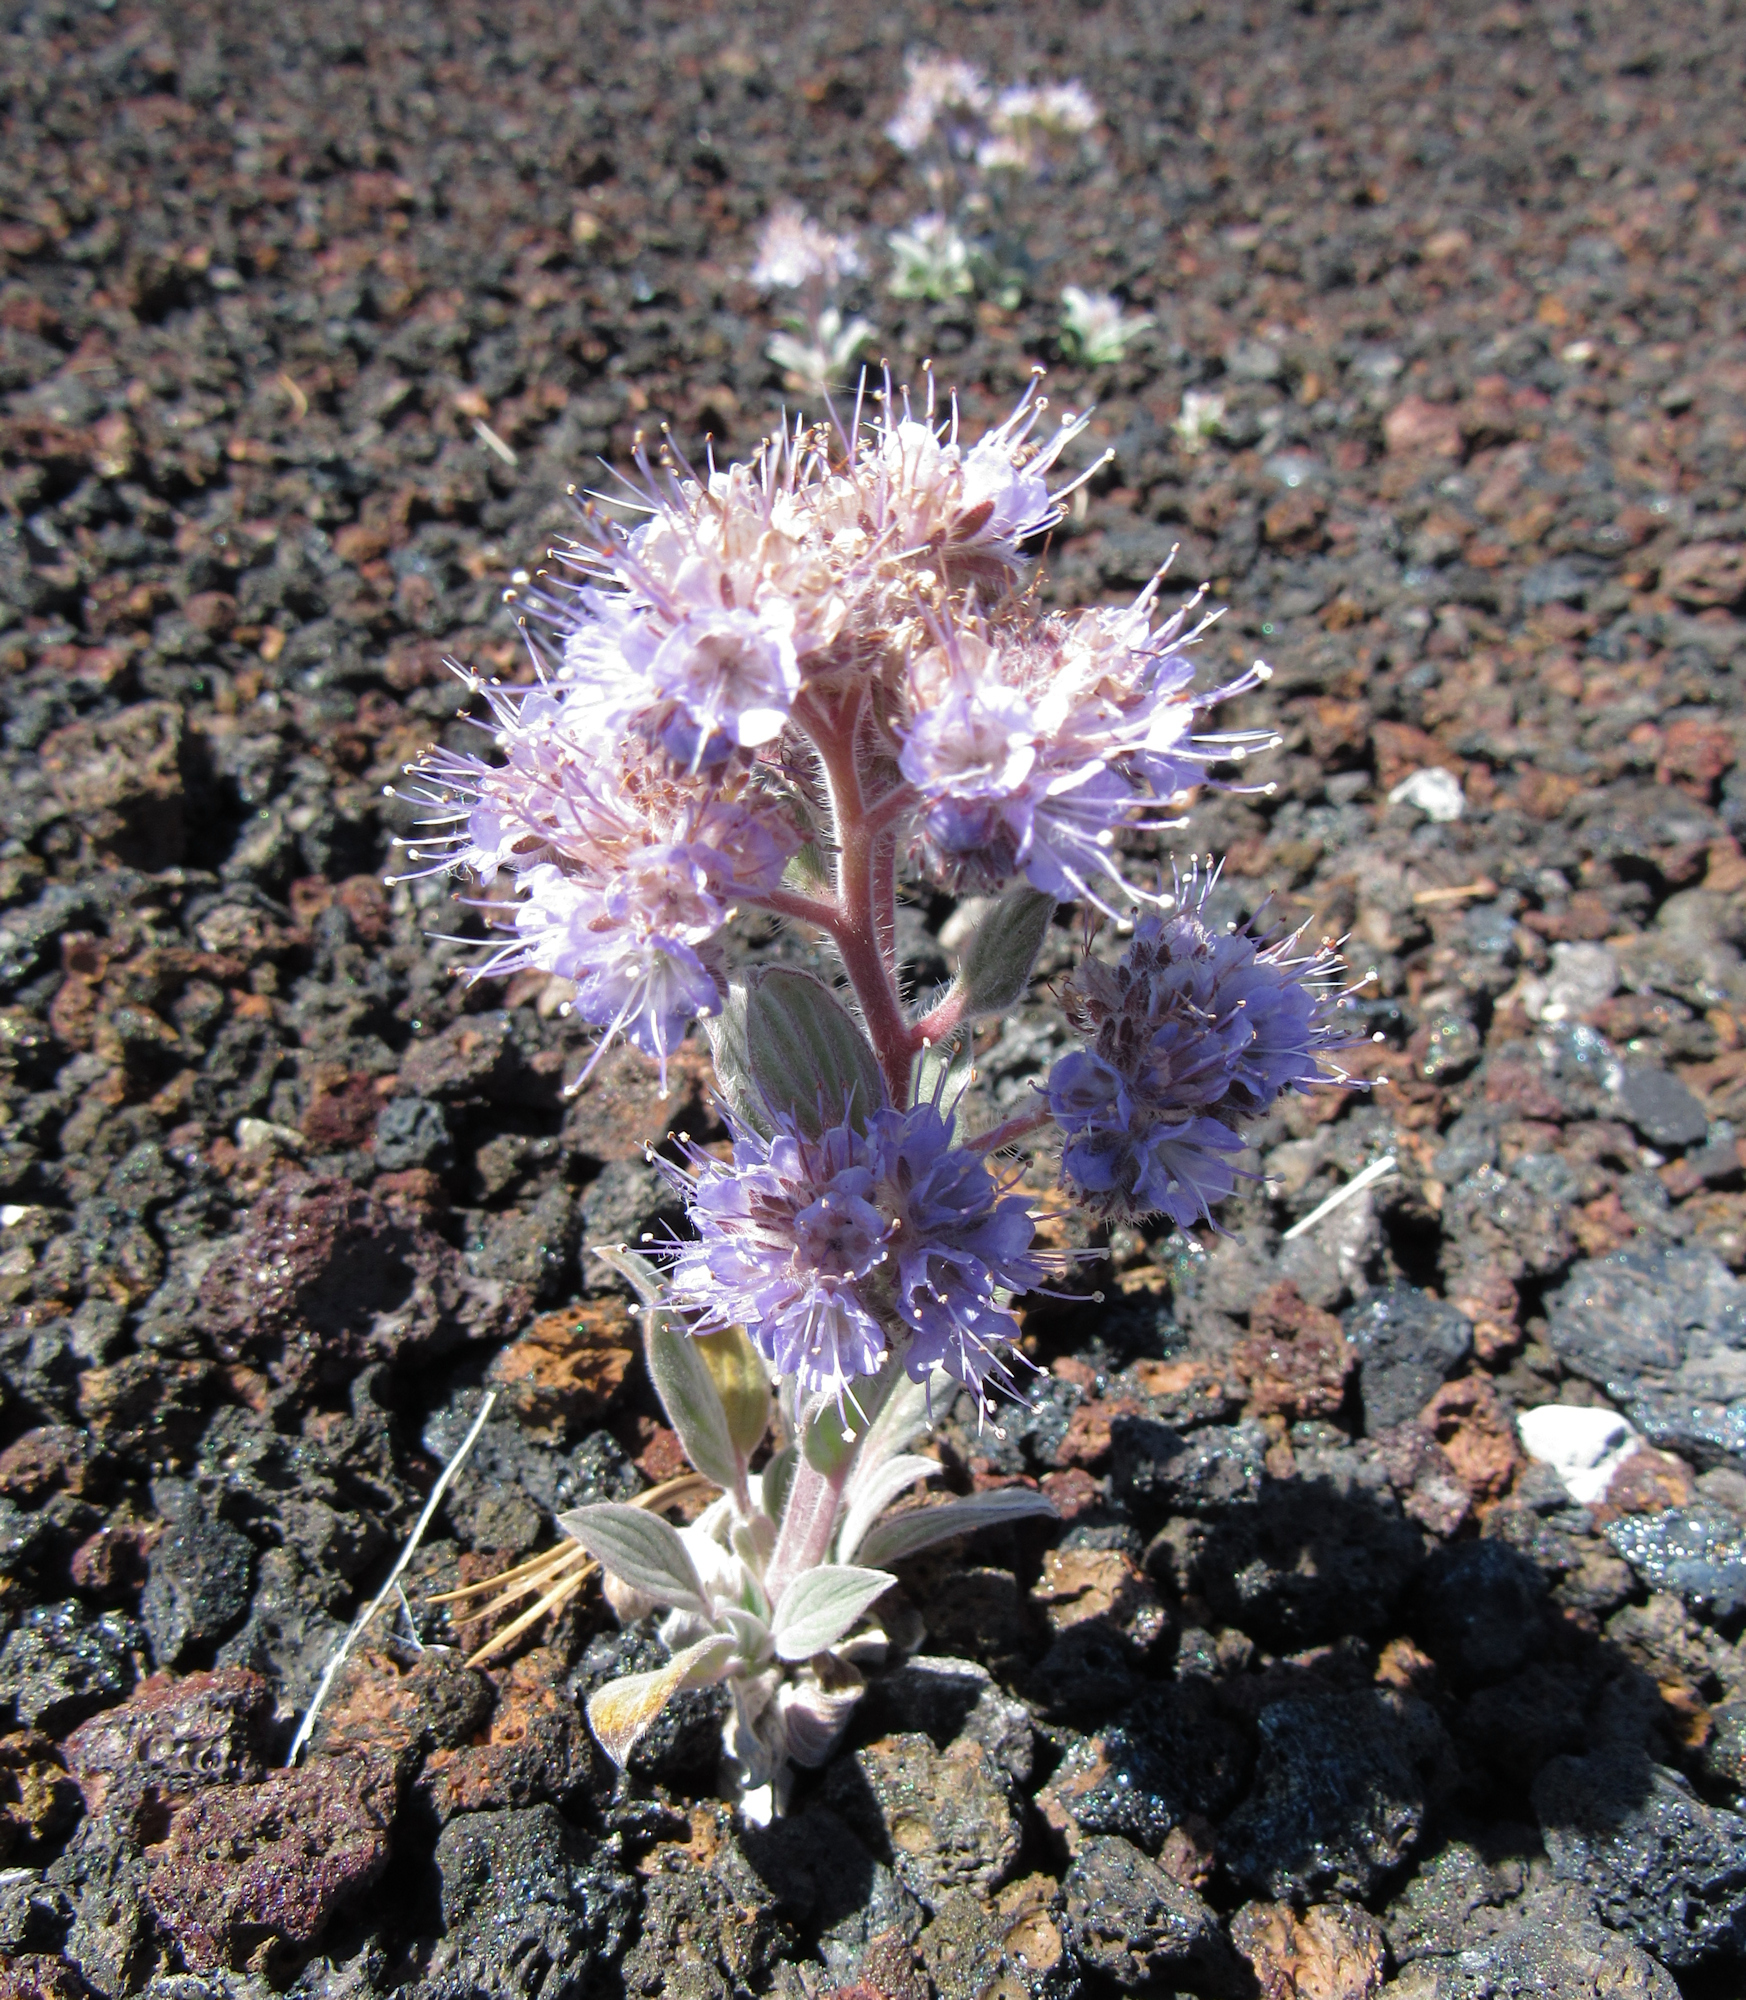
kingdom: Plantae
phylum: Tracheophyta
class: Magnoliopsida
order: Boraginales
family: Hydrophyllaceae
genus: Phacelia
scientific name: Phacelia hastata
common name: Silver-leaved phacelia
